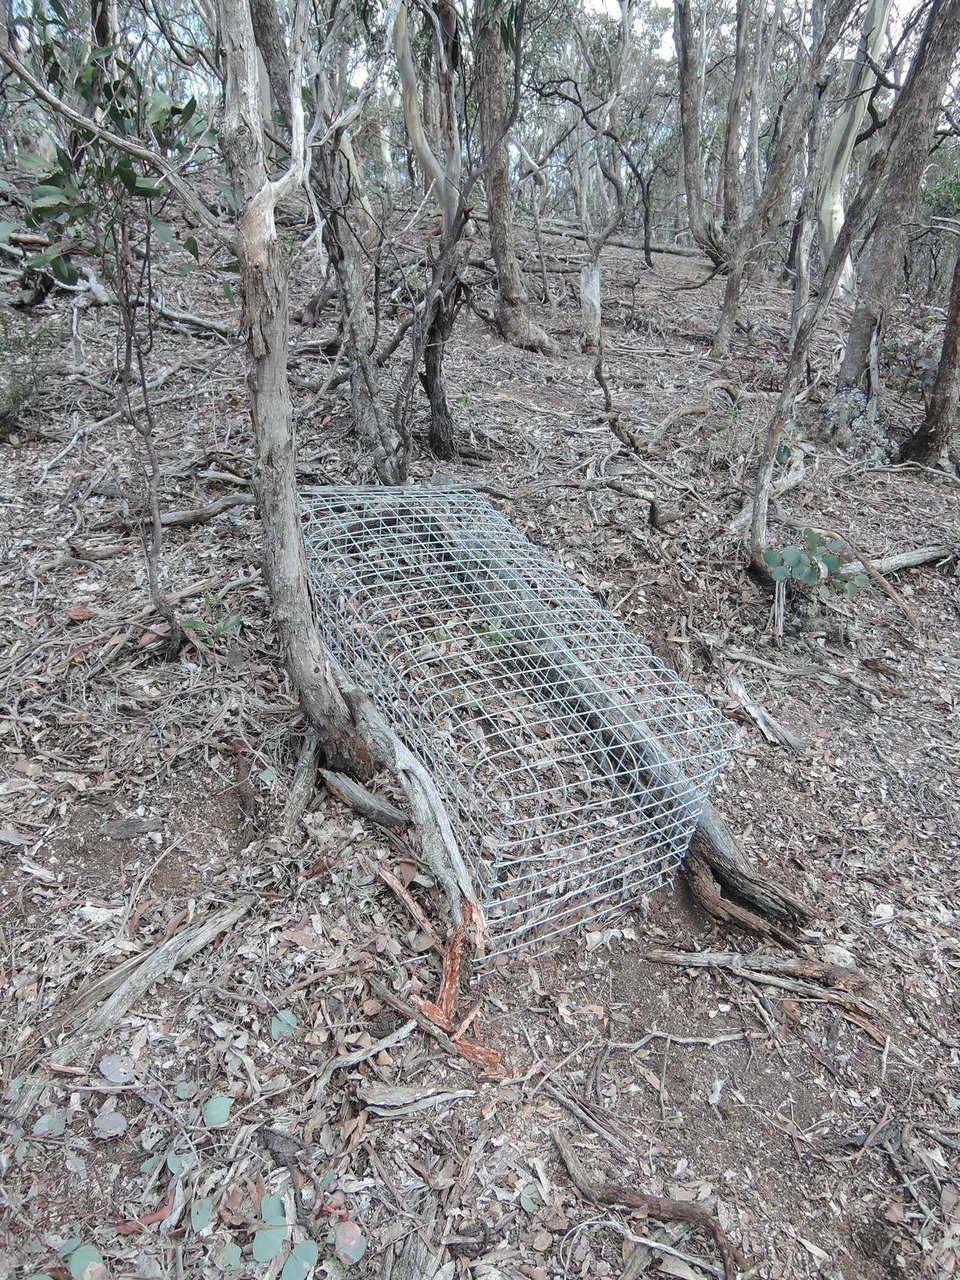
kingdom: Plantae
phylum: Tracheophyta
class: Magnoliopsida
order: Asterales
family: Asteraceae
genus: Olearia
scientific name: Olearia pannosa
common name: Velvet daisybush
